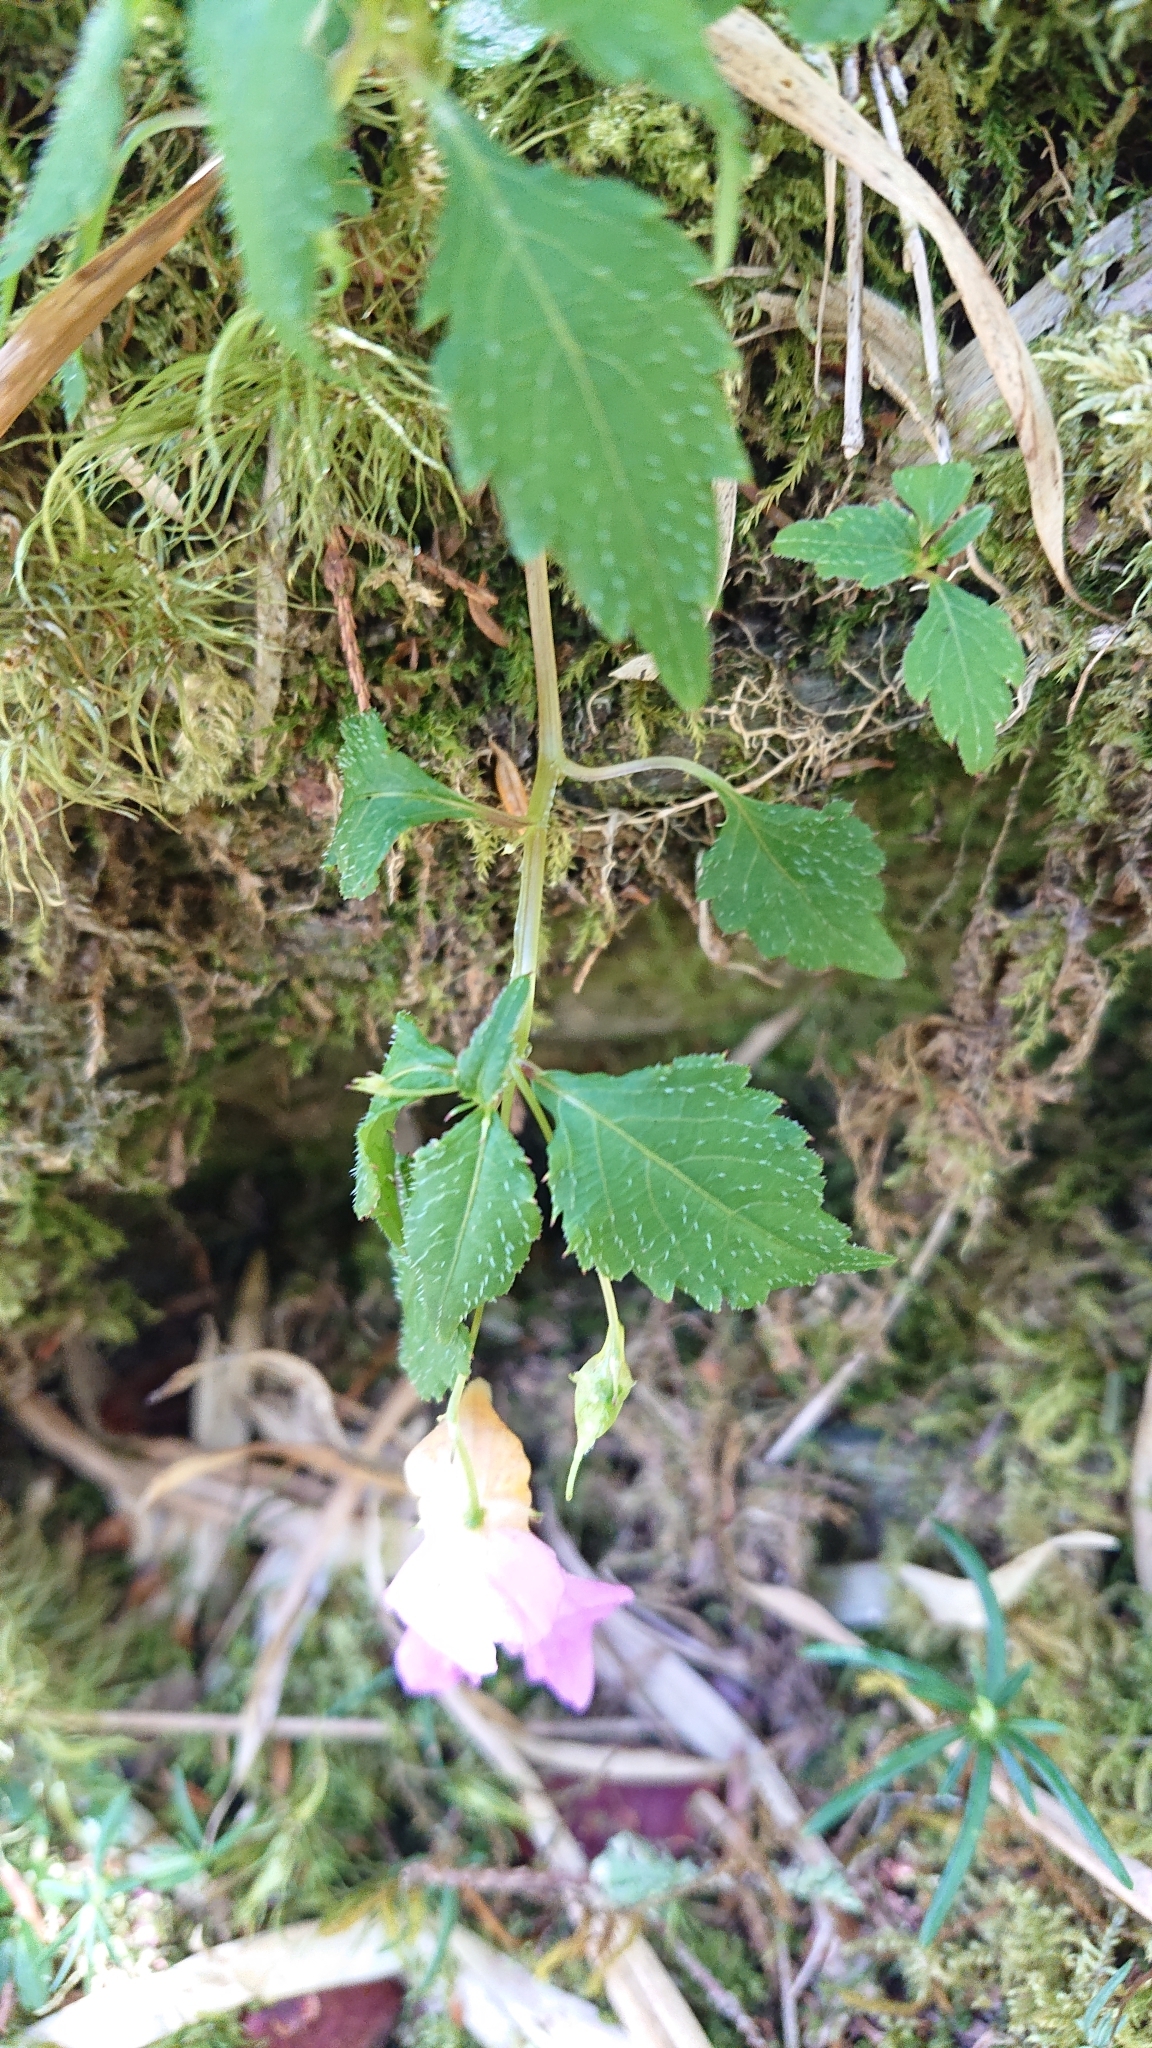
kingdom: Plantae
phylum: Tracheophyta
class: Magnoliopsida
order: Ericales
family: Balsaminaceae
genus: Impatiens
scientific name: Impatiens uniflora
